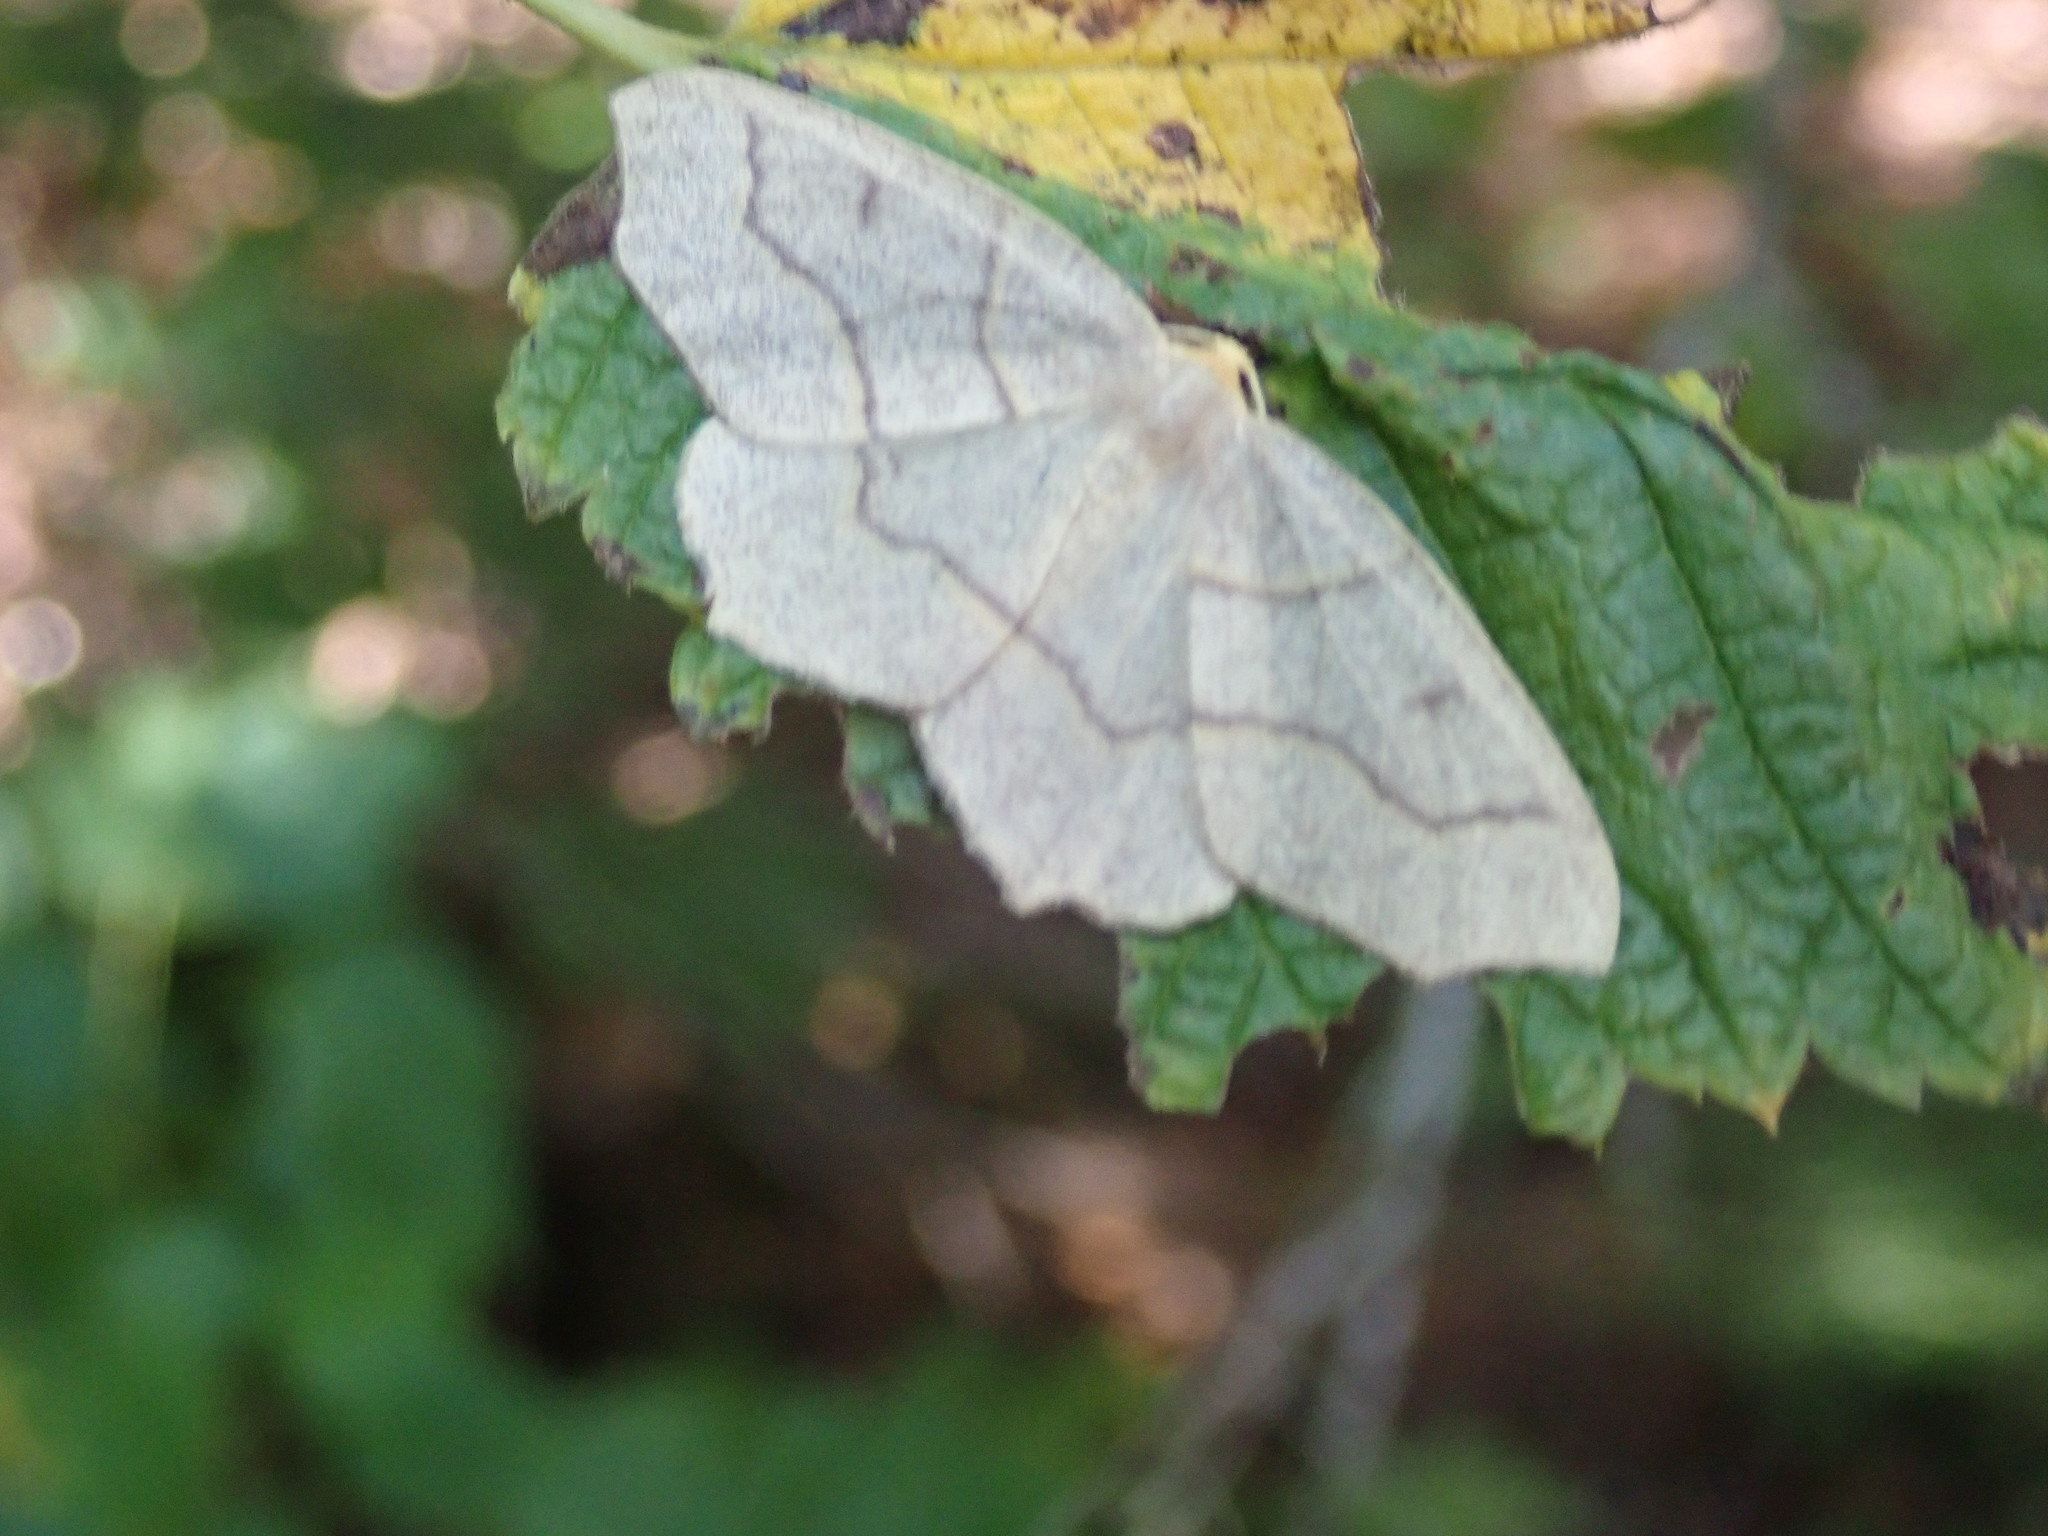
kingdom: Animalia
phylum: Arthropoda
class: Insecta
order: Lepidoptera
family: Geometridae
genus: Lambdina
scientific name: Lambdina fiscellaria
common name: Hemlock looper
